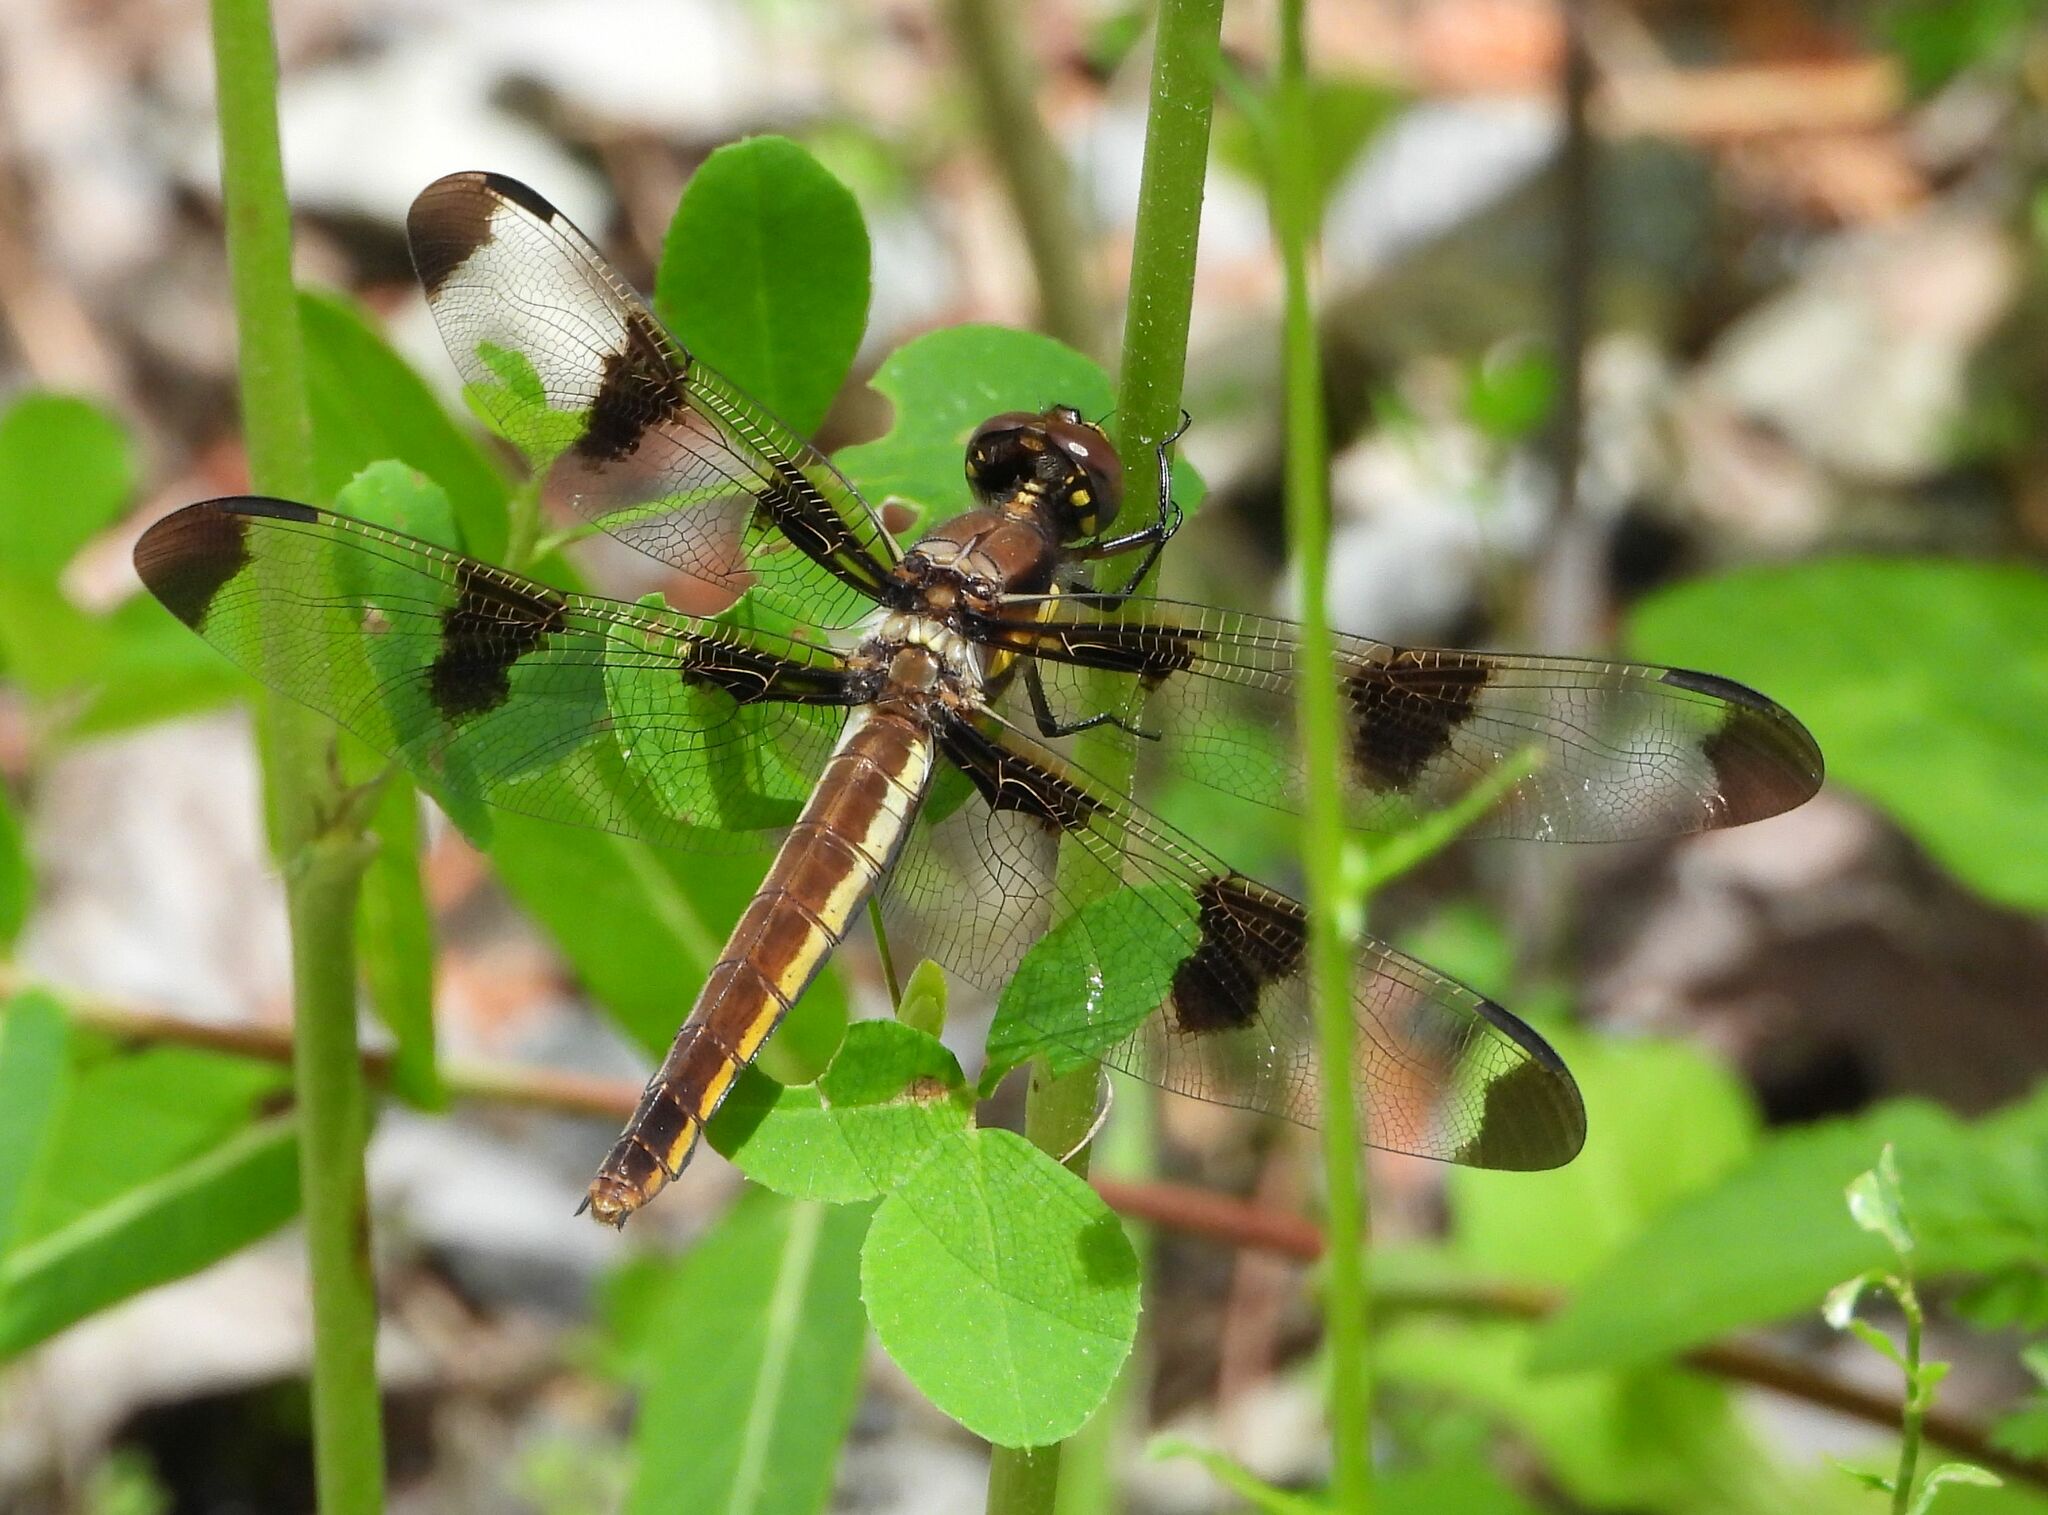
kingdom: Animalia
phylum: Arthropoda
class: Insecta
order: Odonata
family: Libellulidae
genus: Libellula
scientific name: Libellula pulchella
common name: Twelve-spotted skimmer
